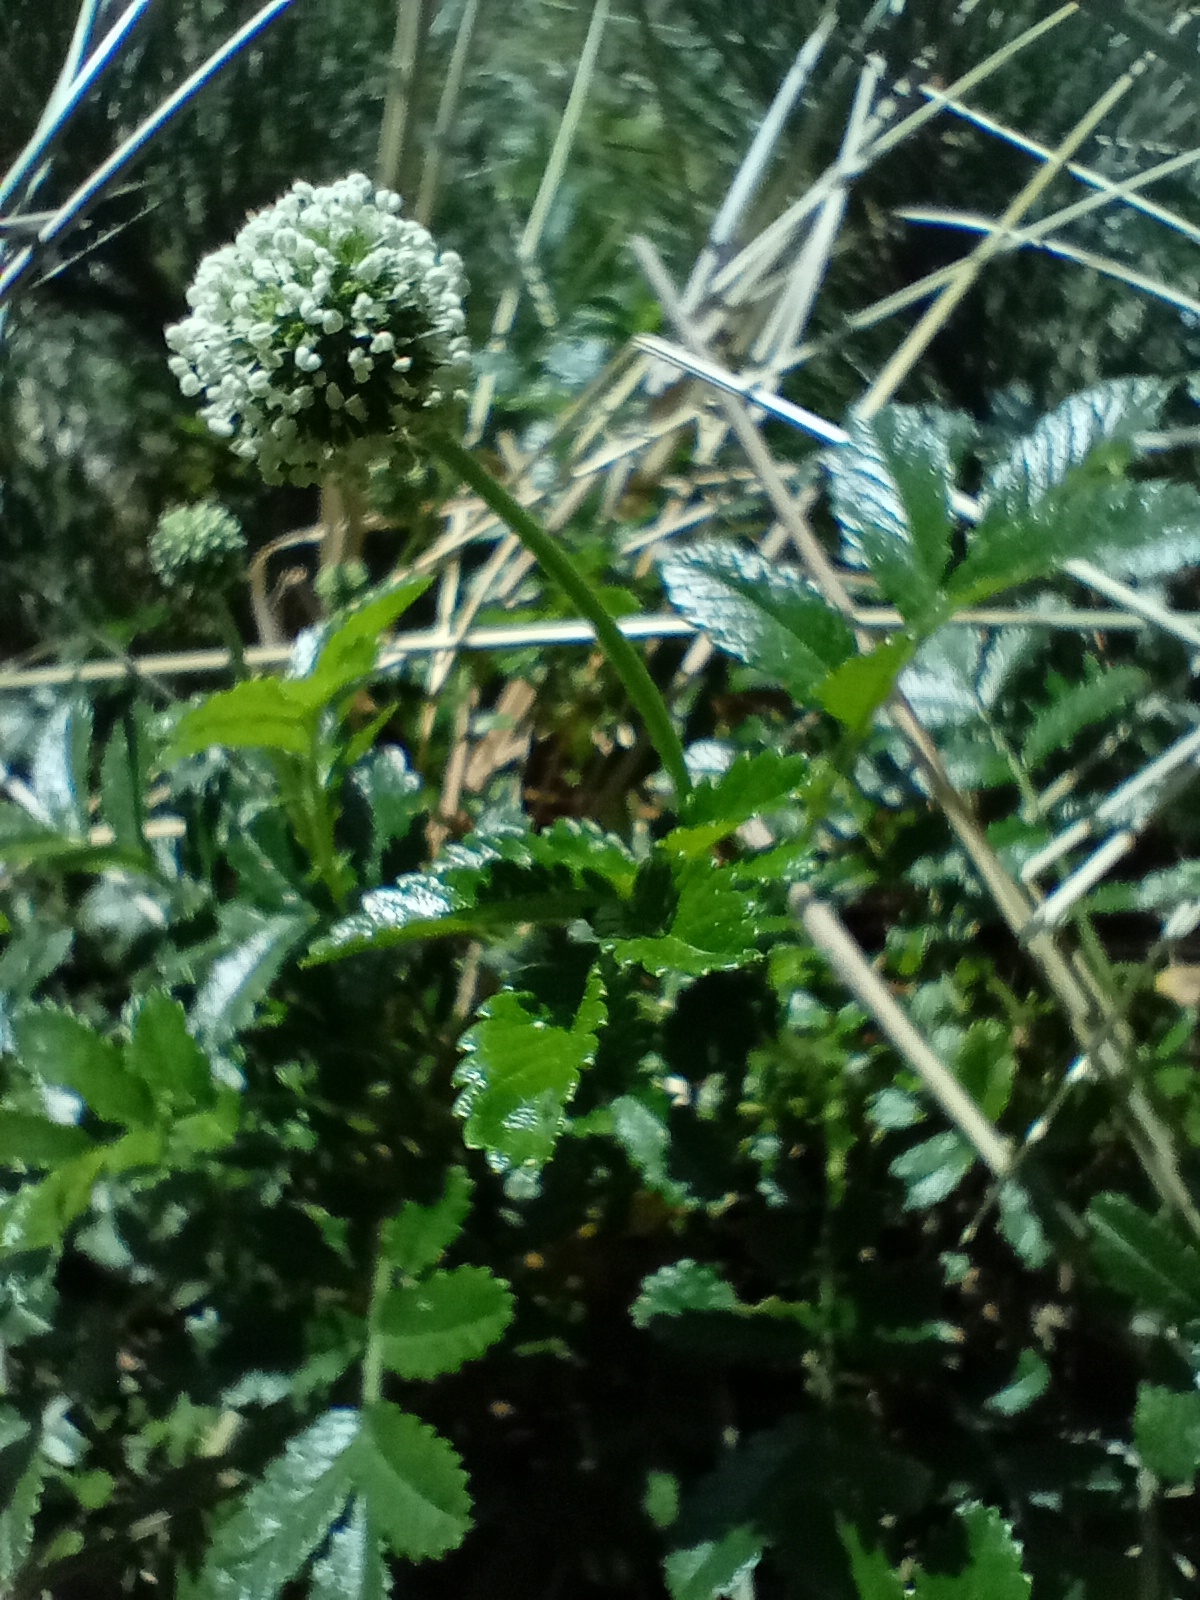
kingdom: Plantae
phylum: Tracheophyta
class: Magnoliopsida
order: Rosales
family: Rosaceae
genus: Acaena
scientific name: Acaena pallida
